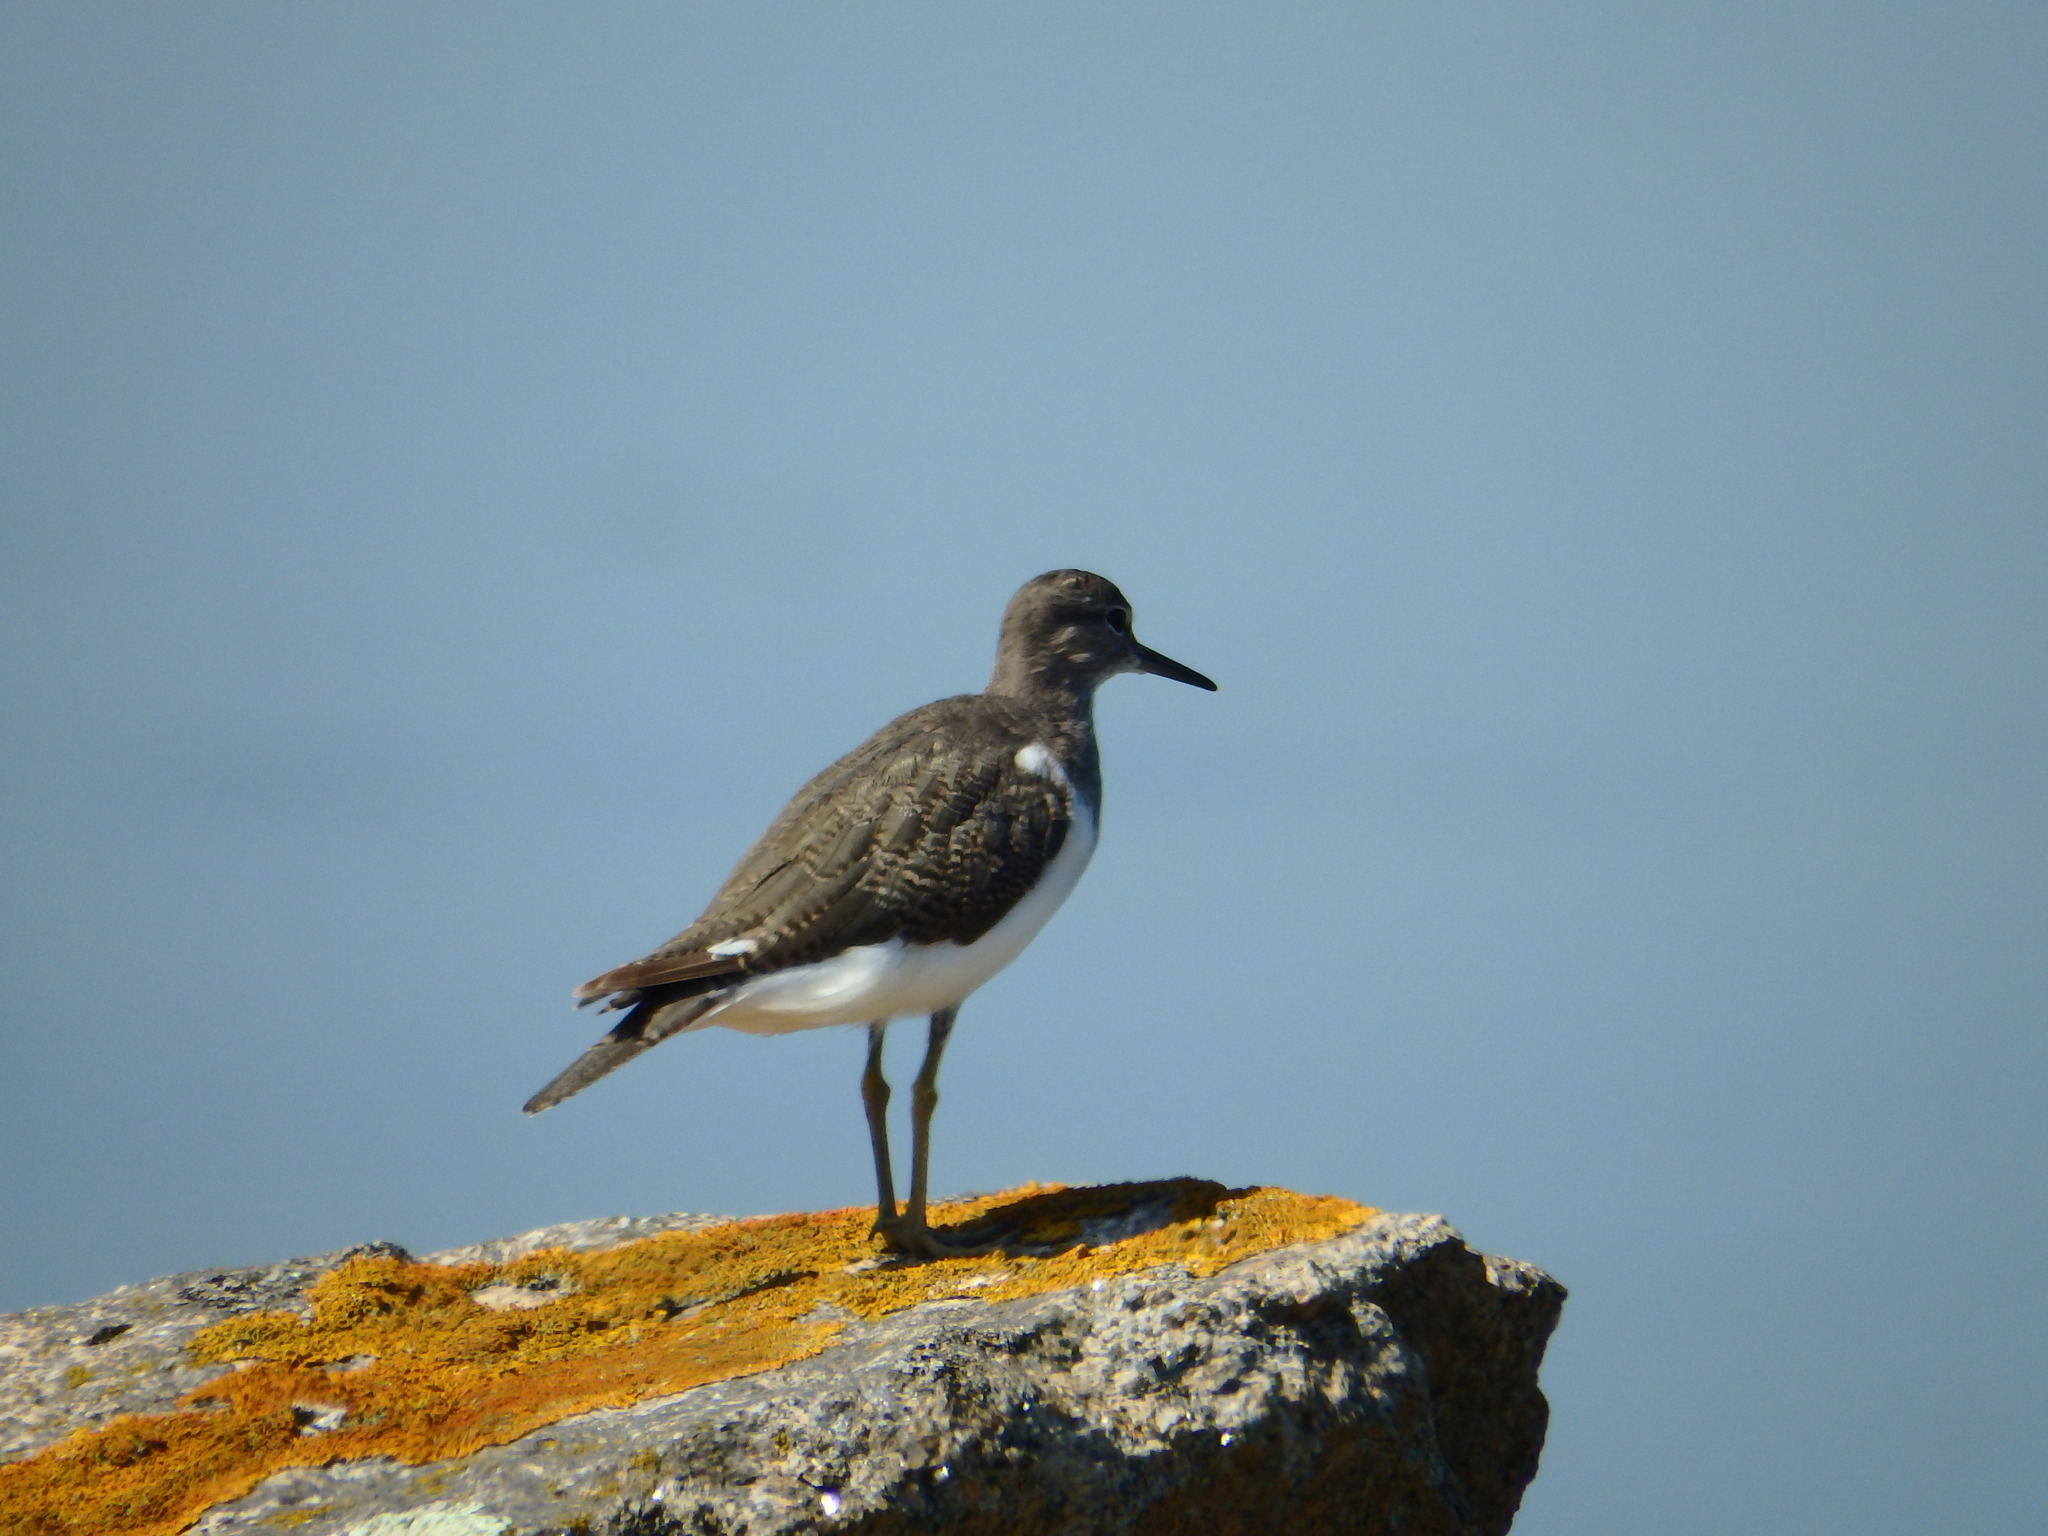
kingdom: Animalia
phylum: Chordata
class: Aves
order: Charadriiformes
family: Scolopacidae
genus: Actitis
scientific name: Actitis hypoleucos
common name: Common sandpiper
